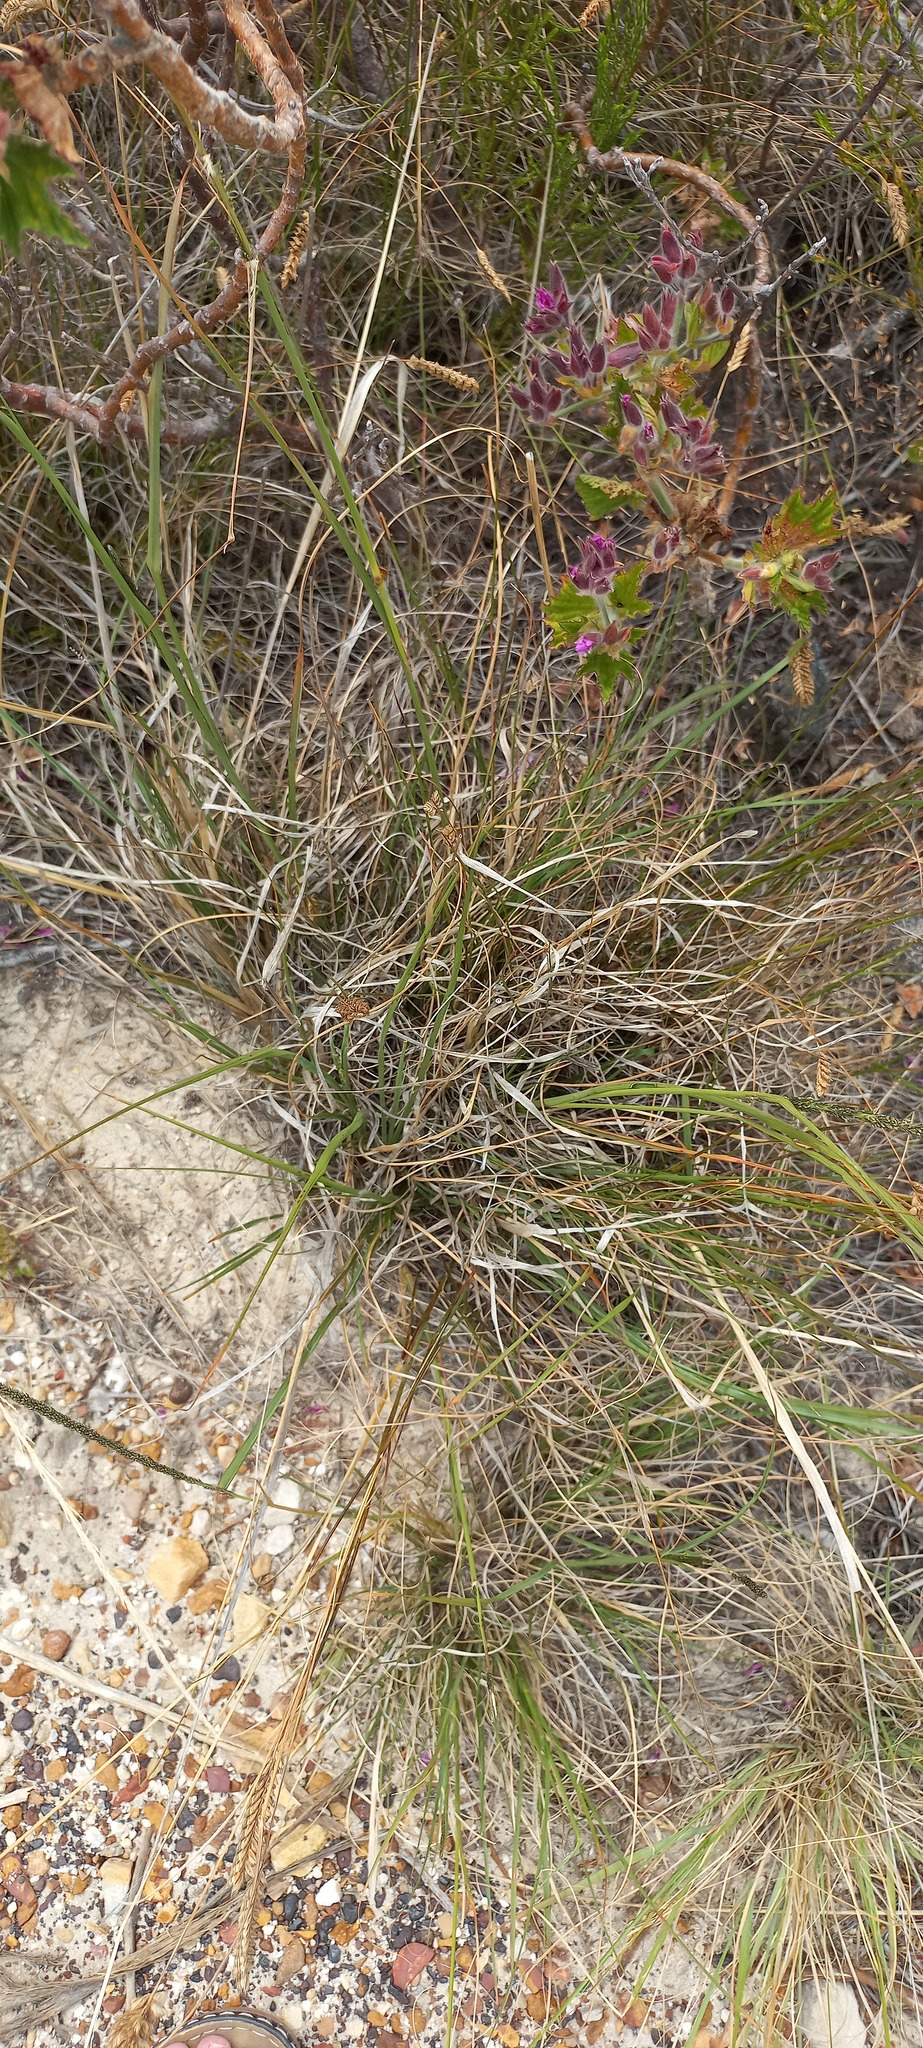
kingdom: Plantae
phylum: Tracheophyta
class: Liliopsida
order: Poales
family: Poaceae
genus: Tribolium
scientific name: Tribolium uniolae
